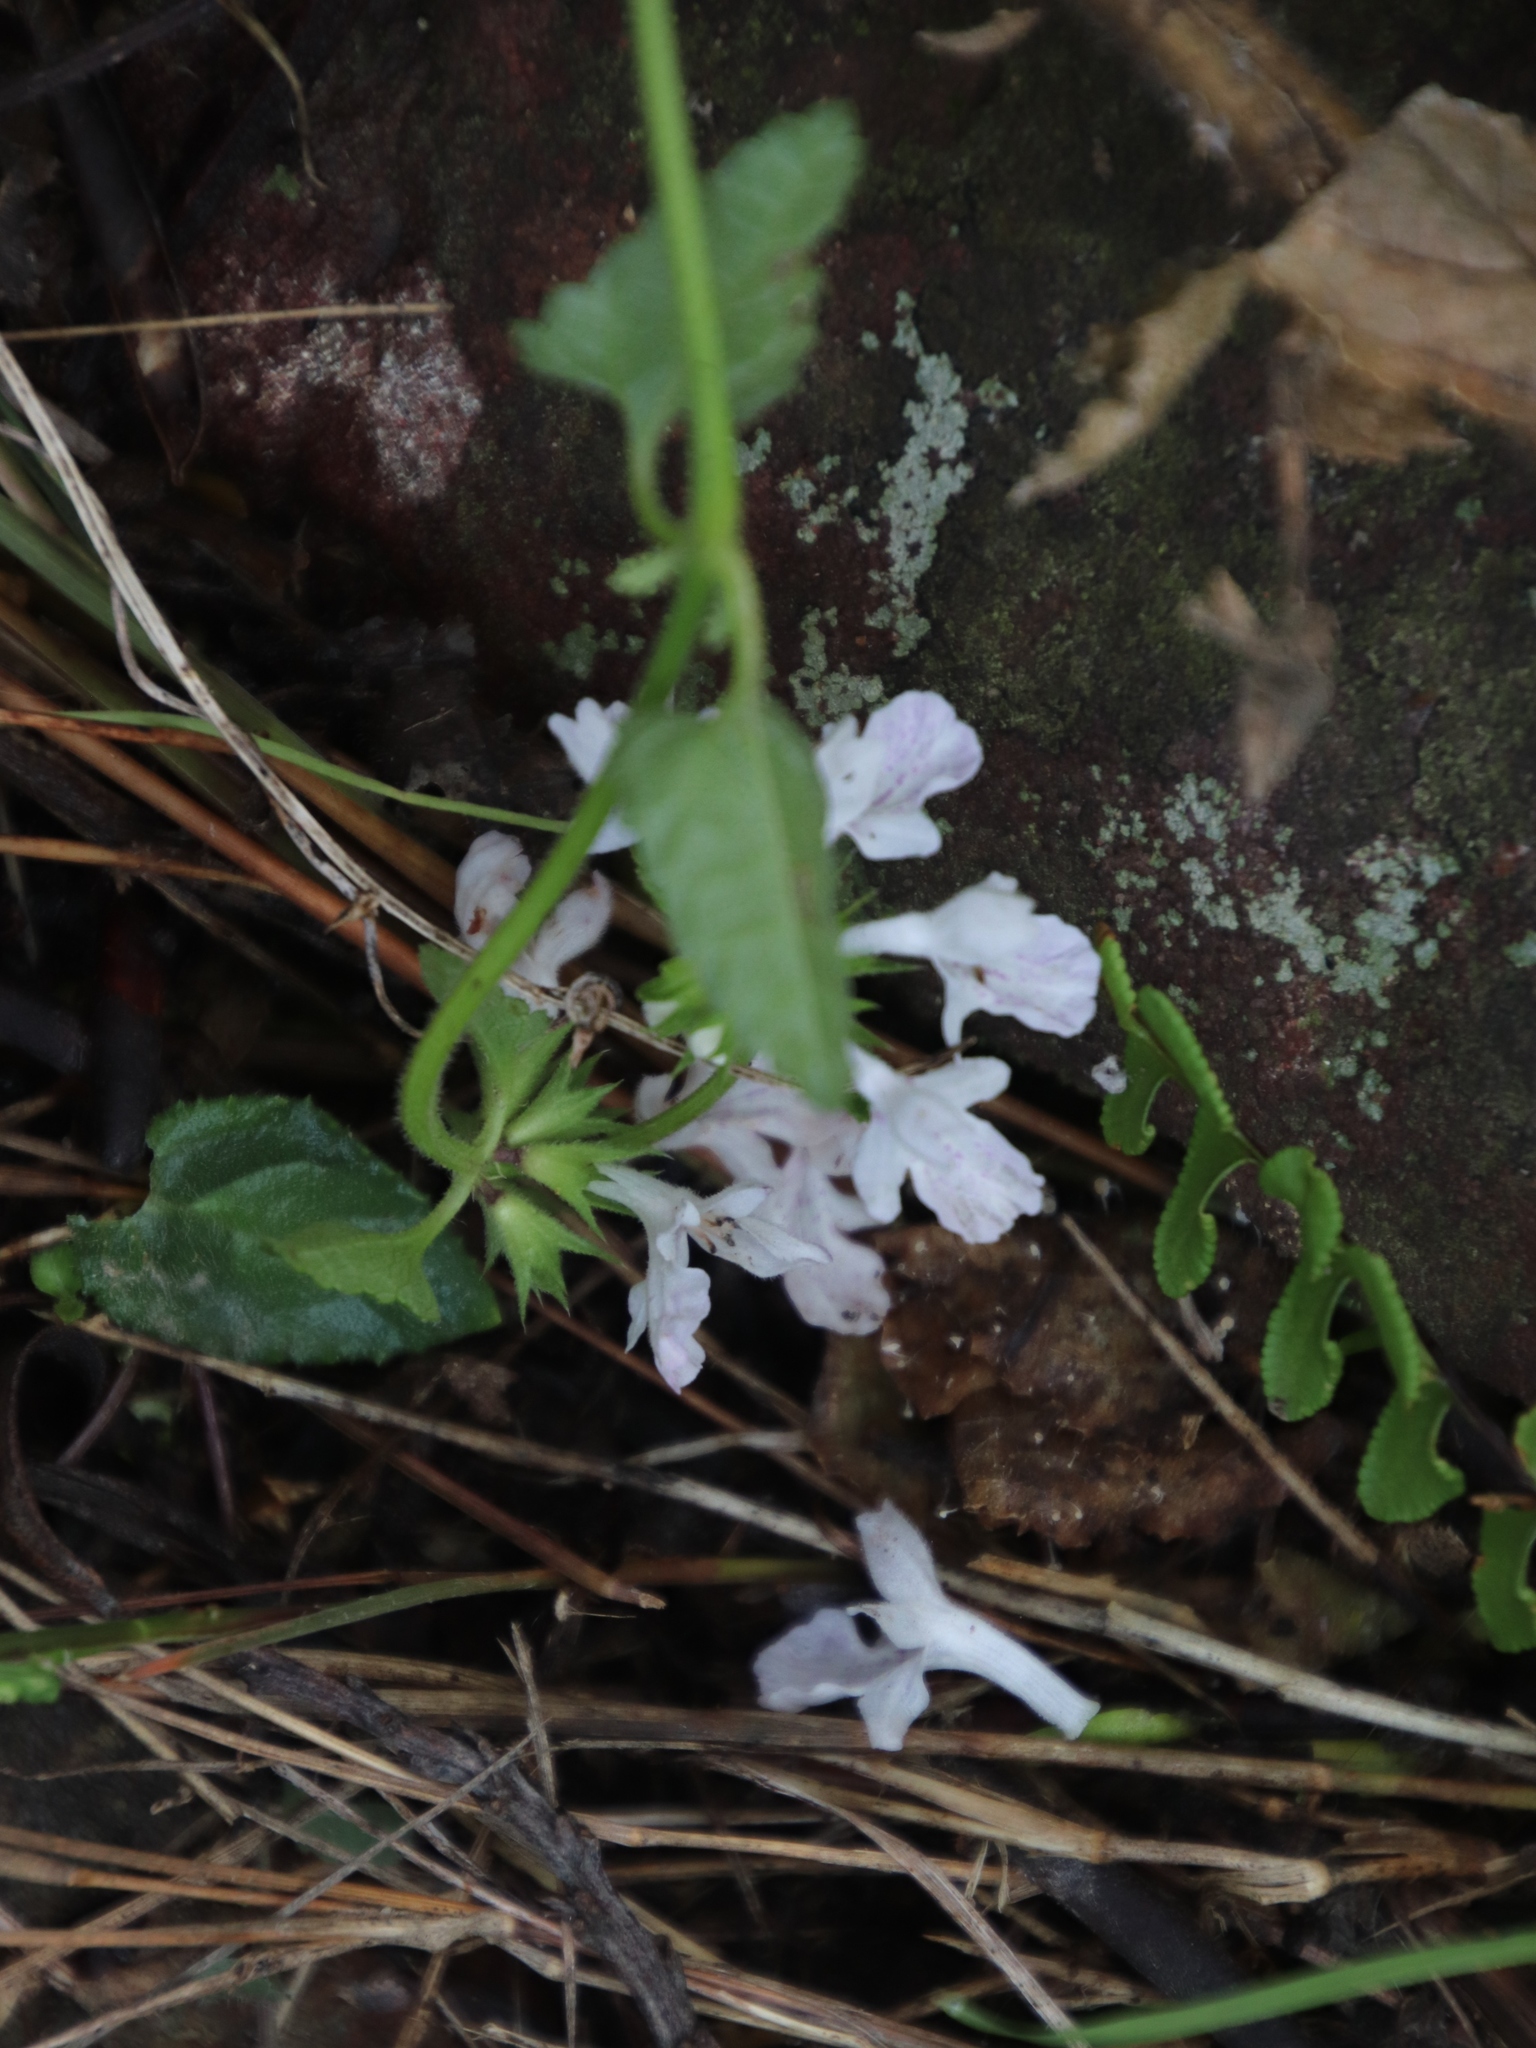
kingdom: Plantae
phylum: Tracheophyta
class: Magnoliopsida
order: Lamiales
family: Lamiaceae
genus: Stachys
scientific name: Stachys aethiopica
